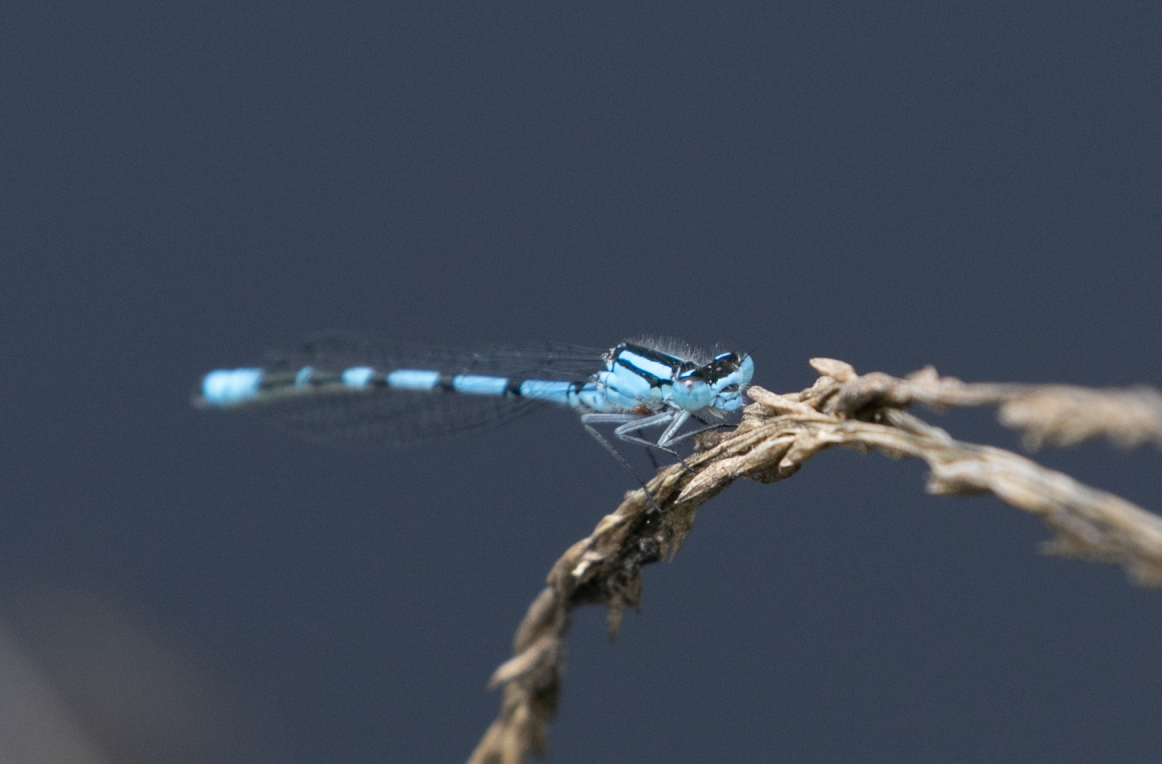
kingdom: Animalia
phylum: Arthropoda
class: Insecta
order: Odonata
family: Coenagrionidae
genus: Enallagma
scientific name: Enallagma cyathigerum
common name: Common blue damselfly
